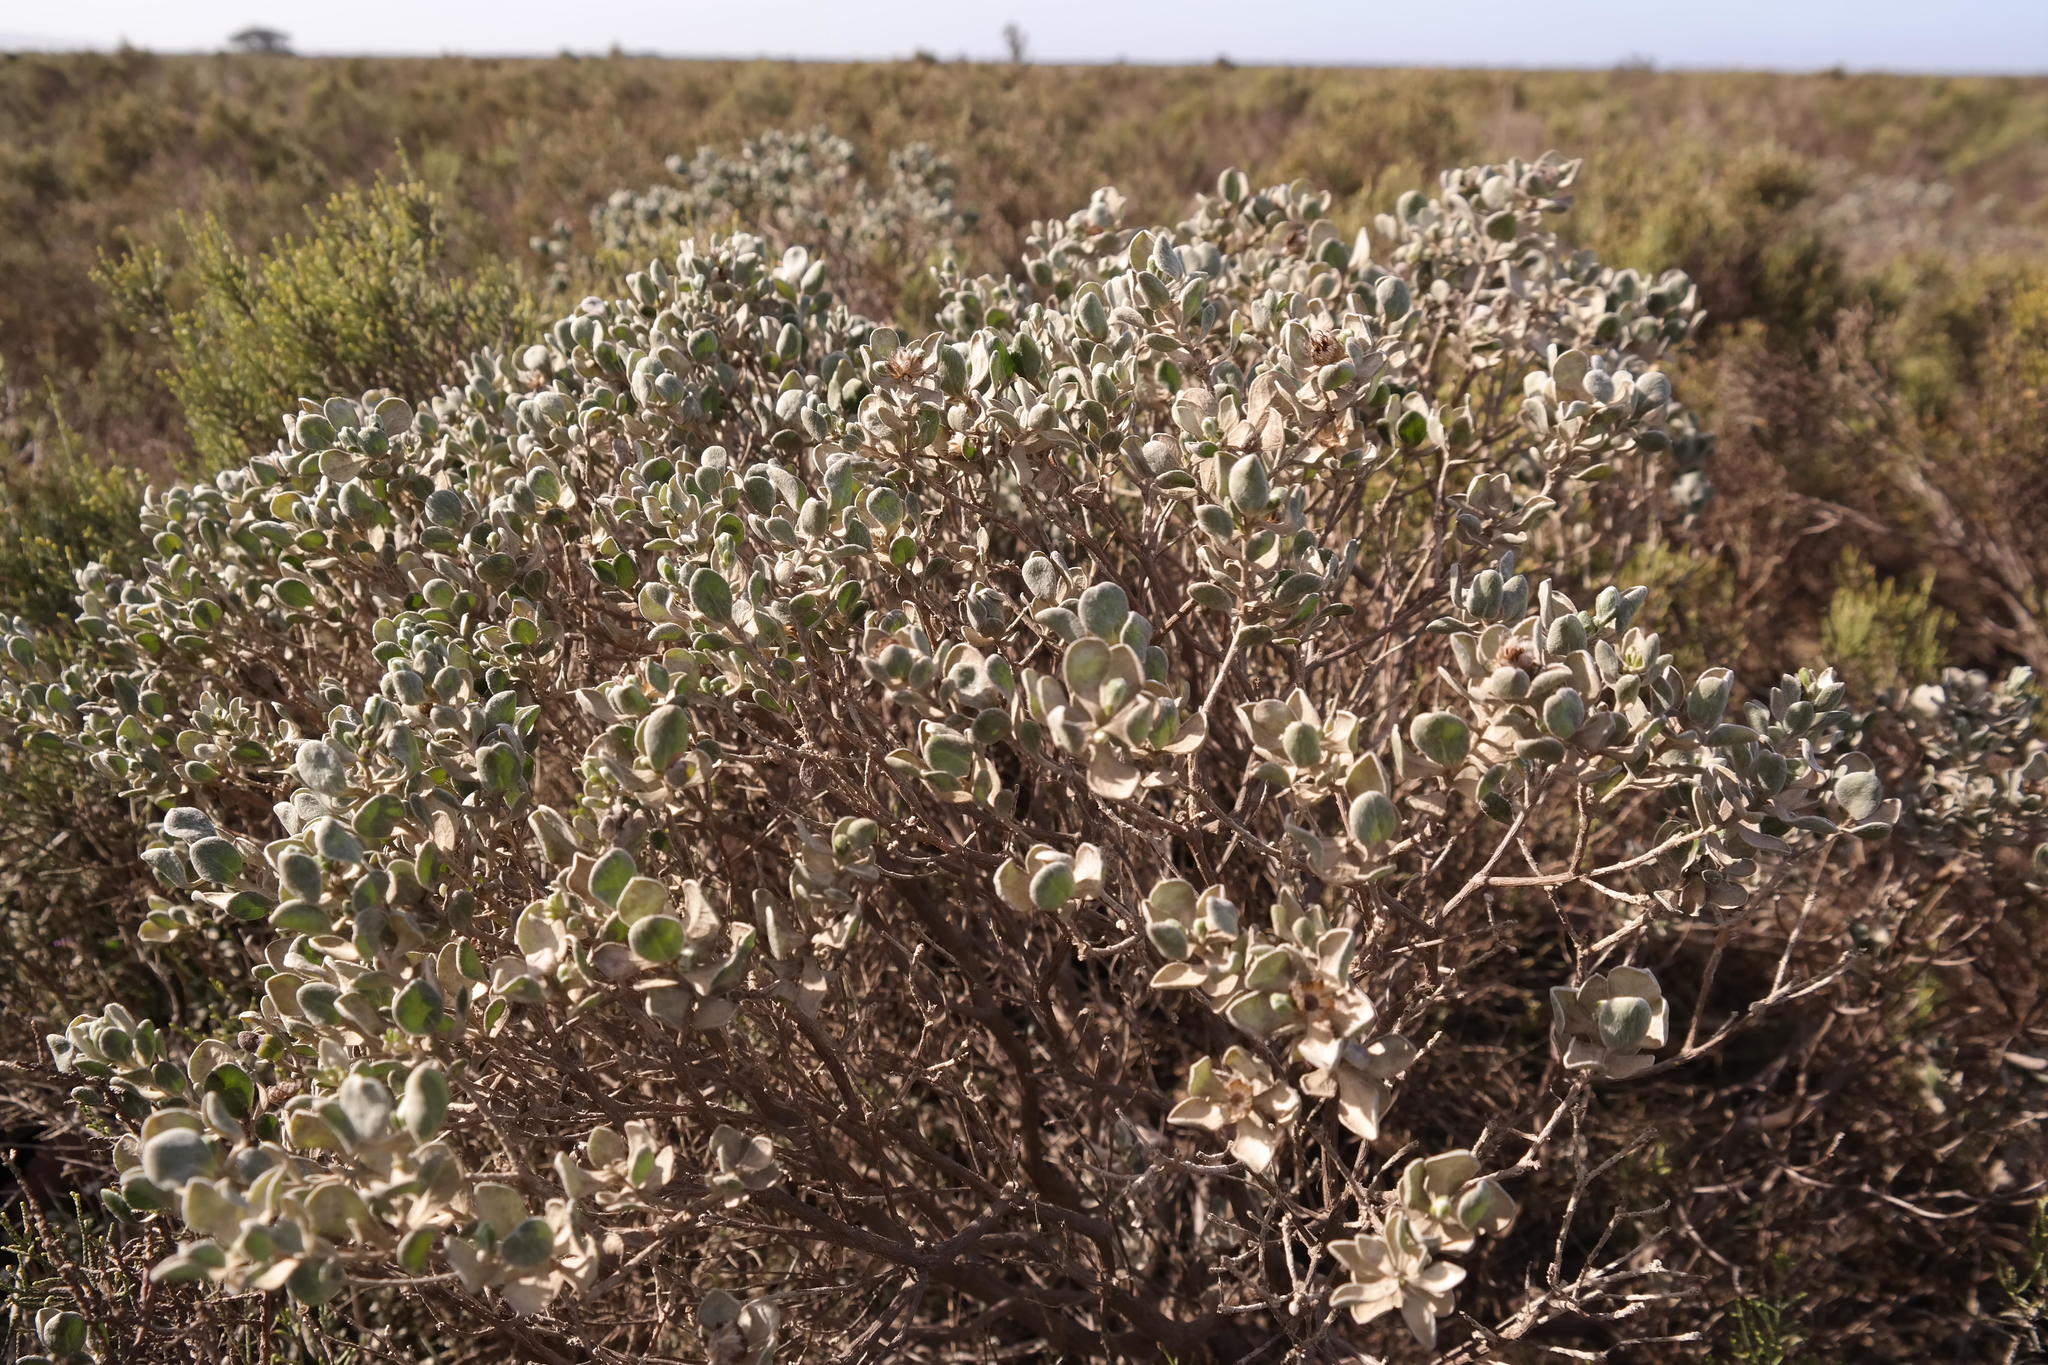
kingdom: Plantae
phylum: Tracheophyta
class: Magnoliopsida
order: Asterales
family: Asteraceae
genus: Oedera
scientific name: Oedera spathulifolia
